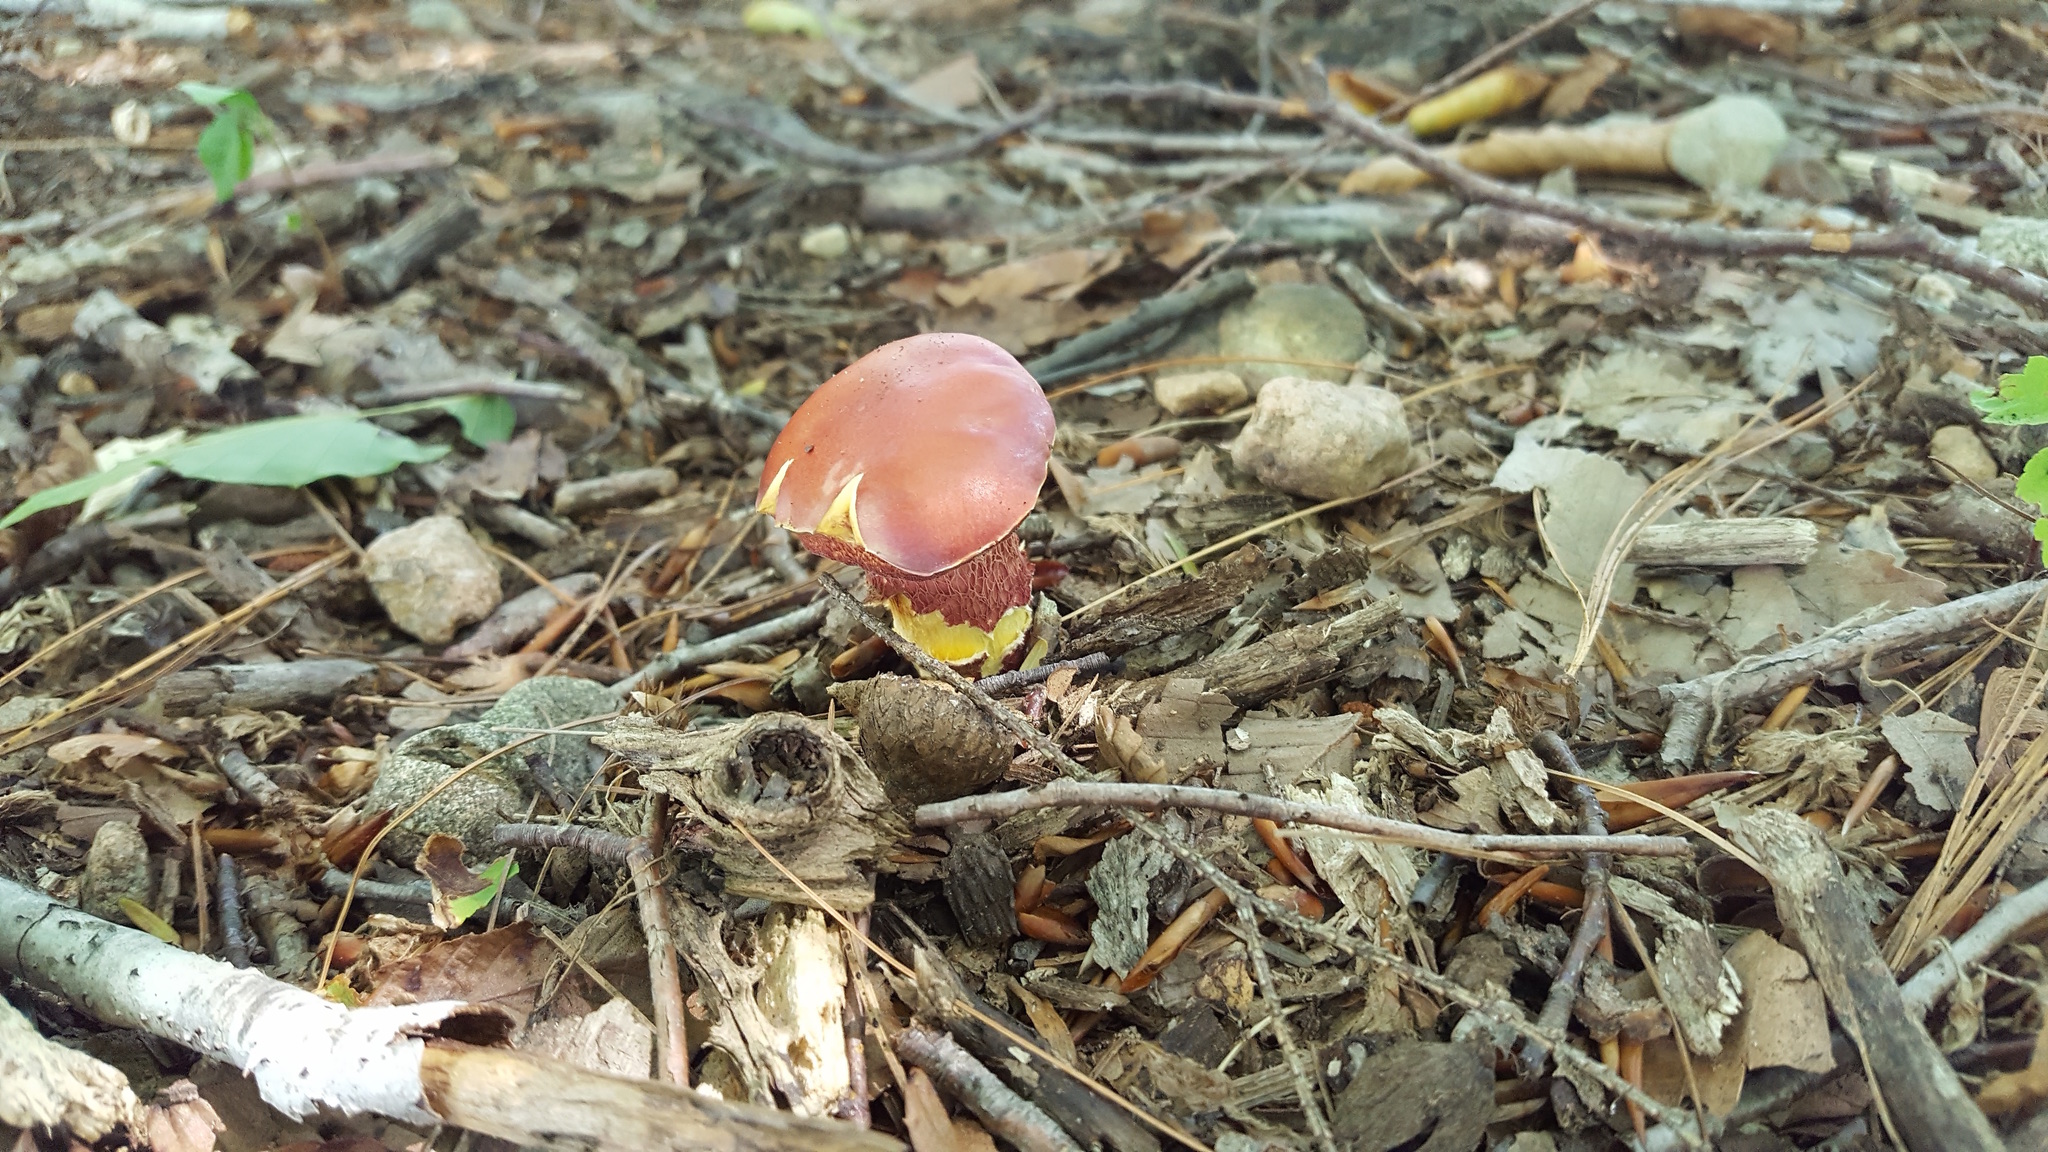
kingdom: Fungi
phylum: Basidiomycota
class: Agaricomycetes
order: Boletales
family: Boletaceae
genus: Butyriboletus
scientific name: Butyriboletus frostii
